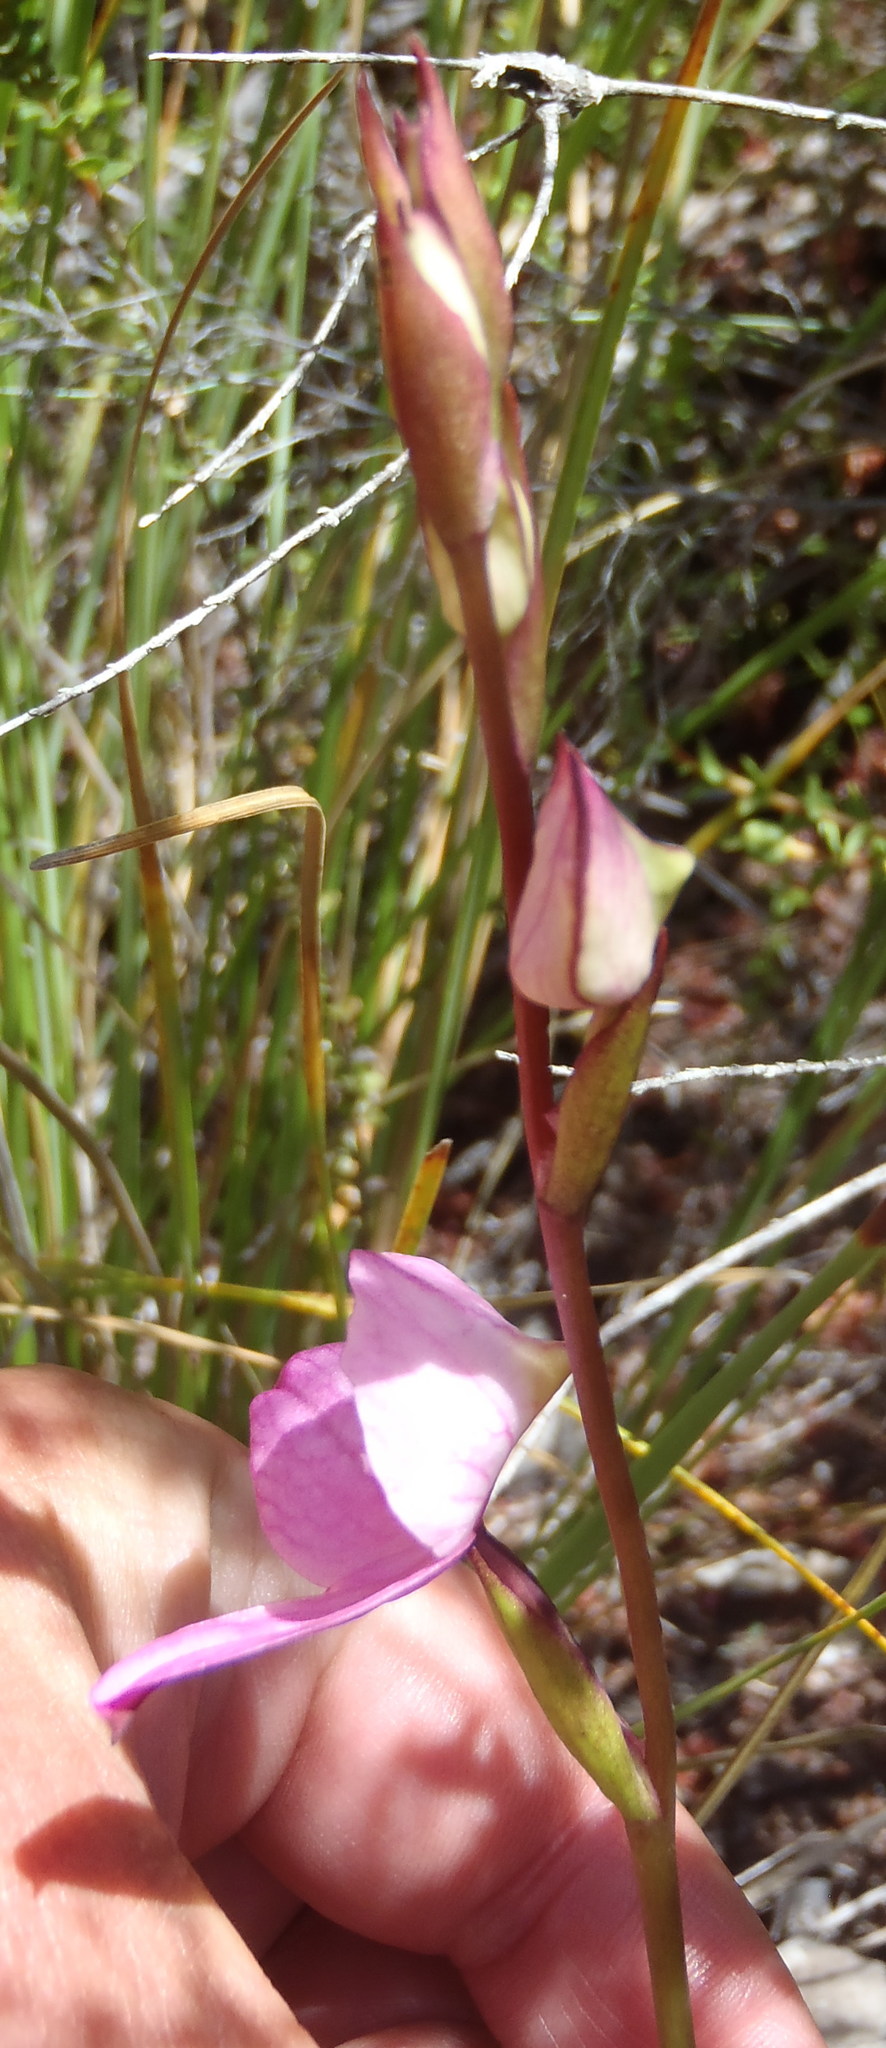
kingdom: Plantae
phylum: Tracheophyta
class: Liliopsida
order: Asparagales
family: Orchidaceae
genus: Disa
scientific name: Disa racemosa
